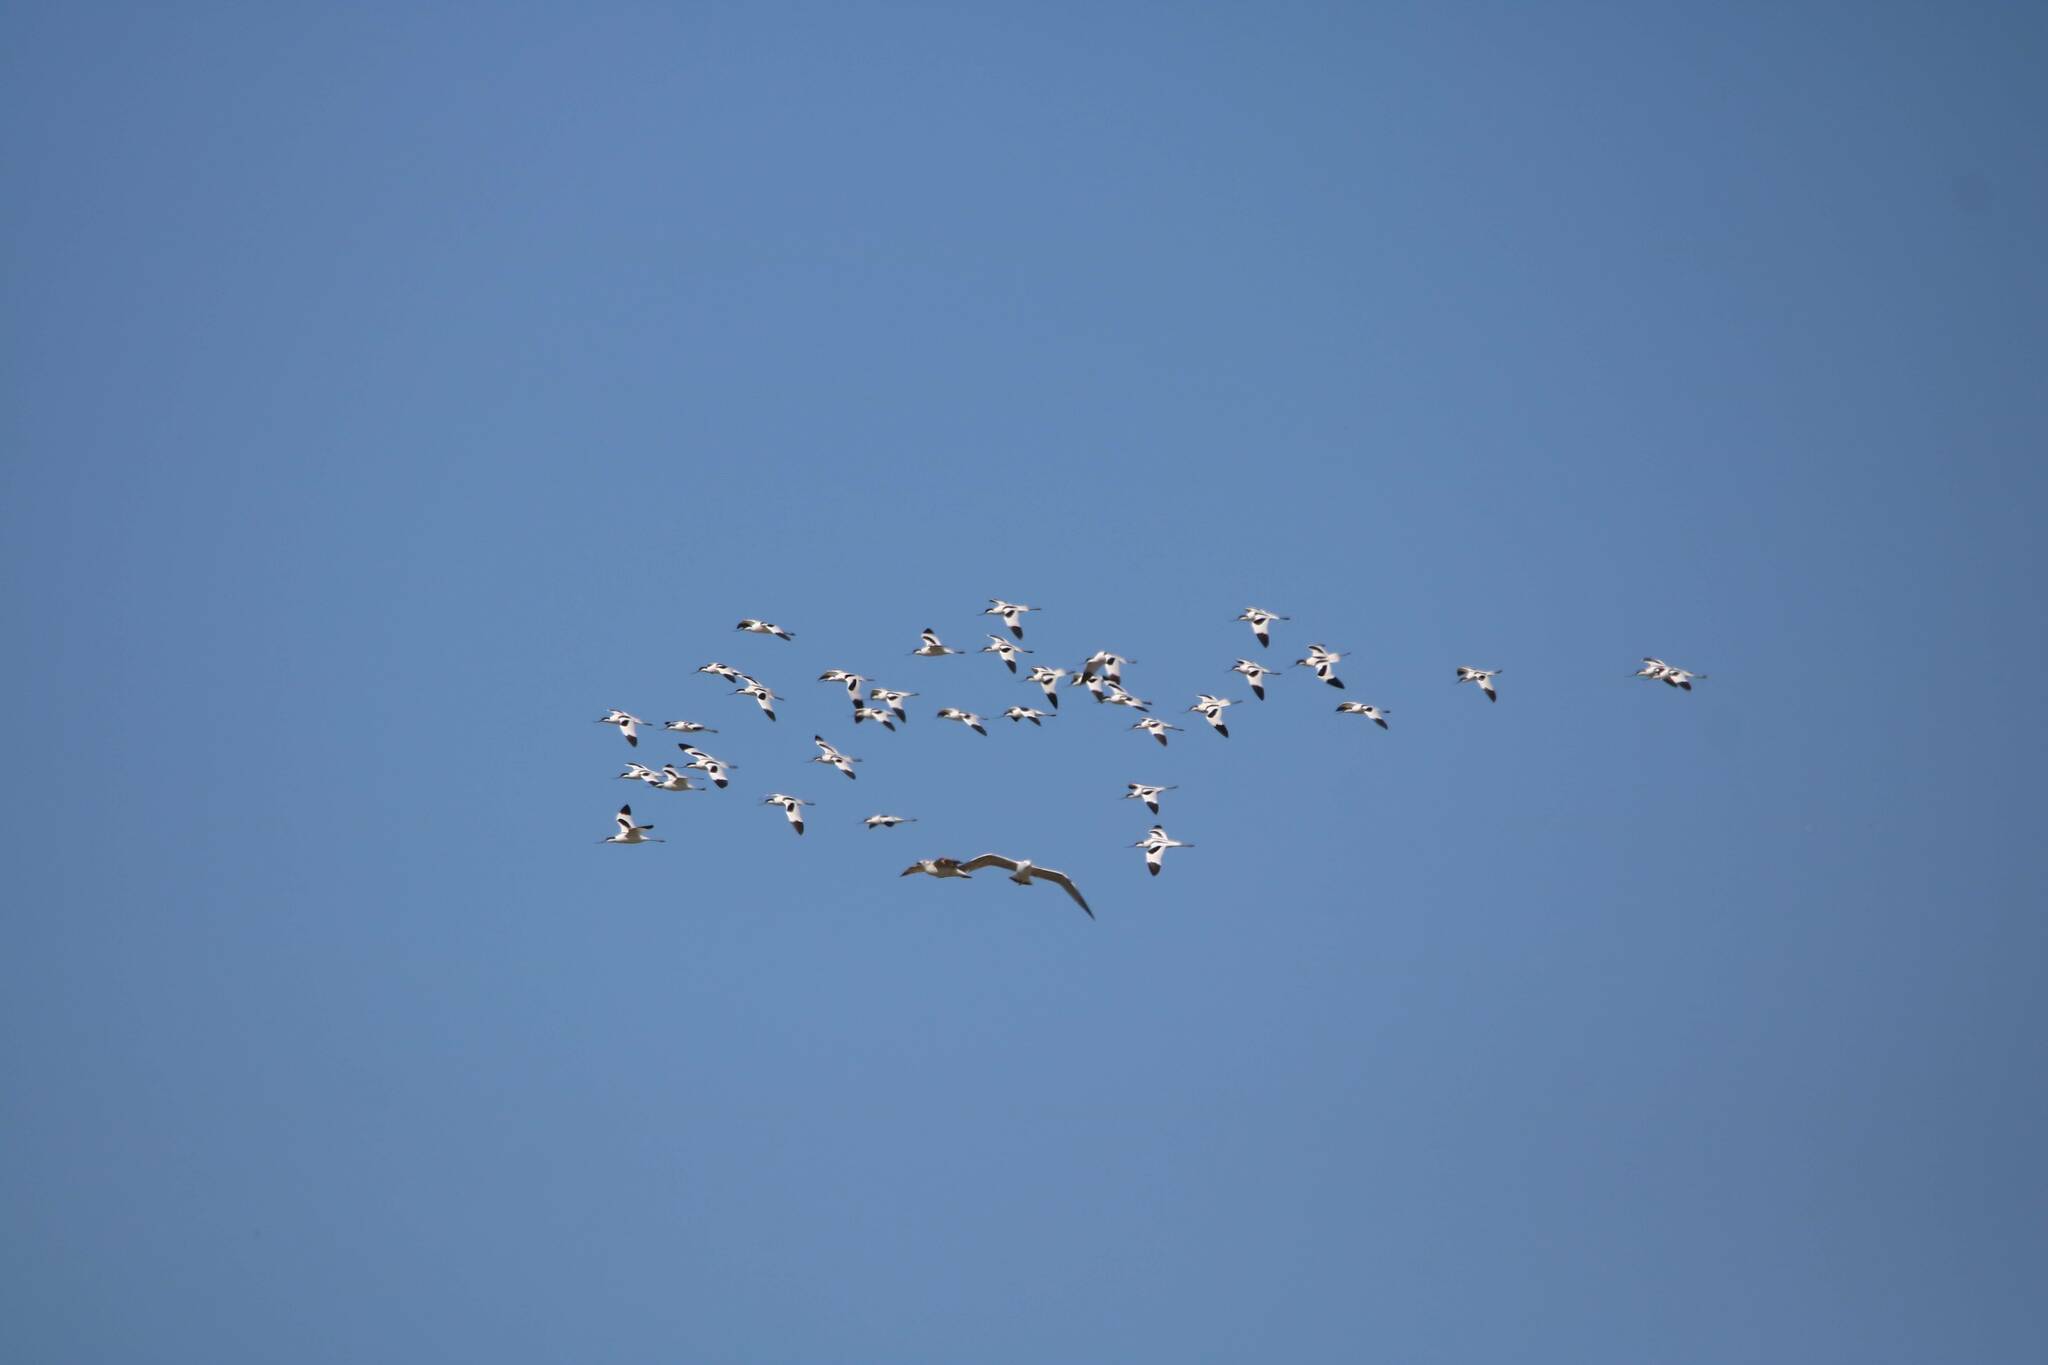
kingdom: Animalia
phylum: Chordata
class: Aves
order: Charadriiformes
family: Recurvirostridae
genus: Recurvirostra
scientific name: Recurvirostra avosetta
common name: Pied avocet
